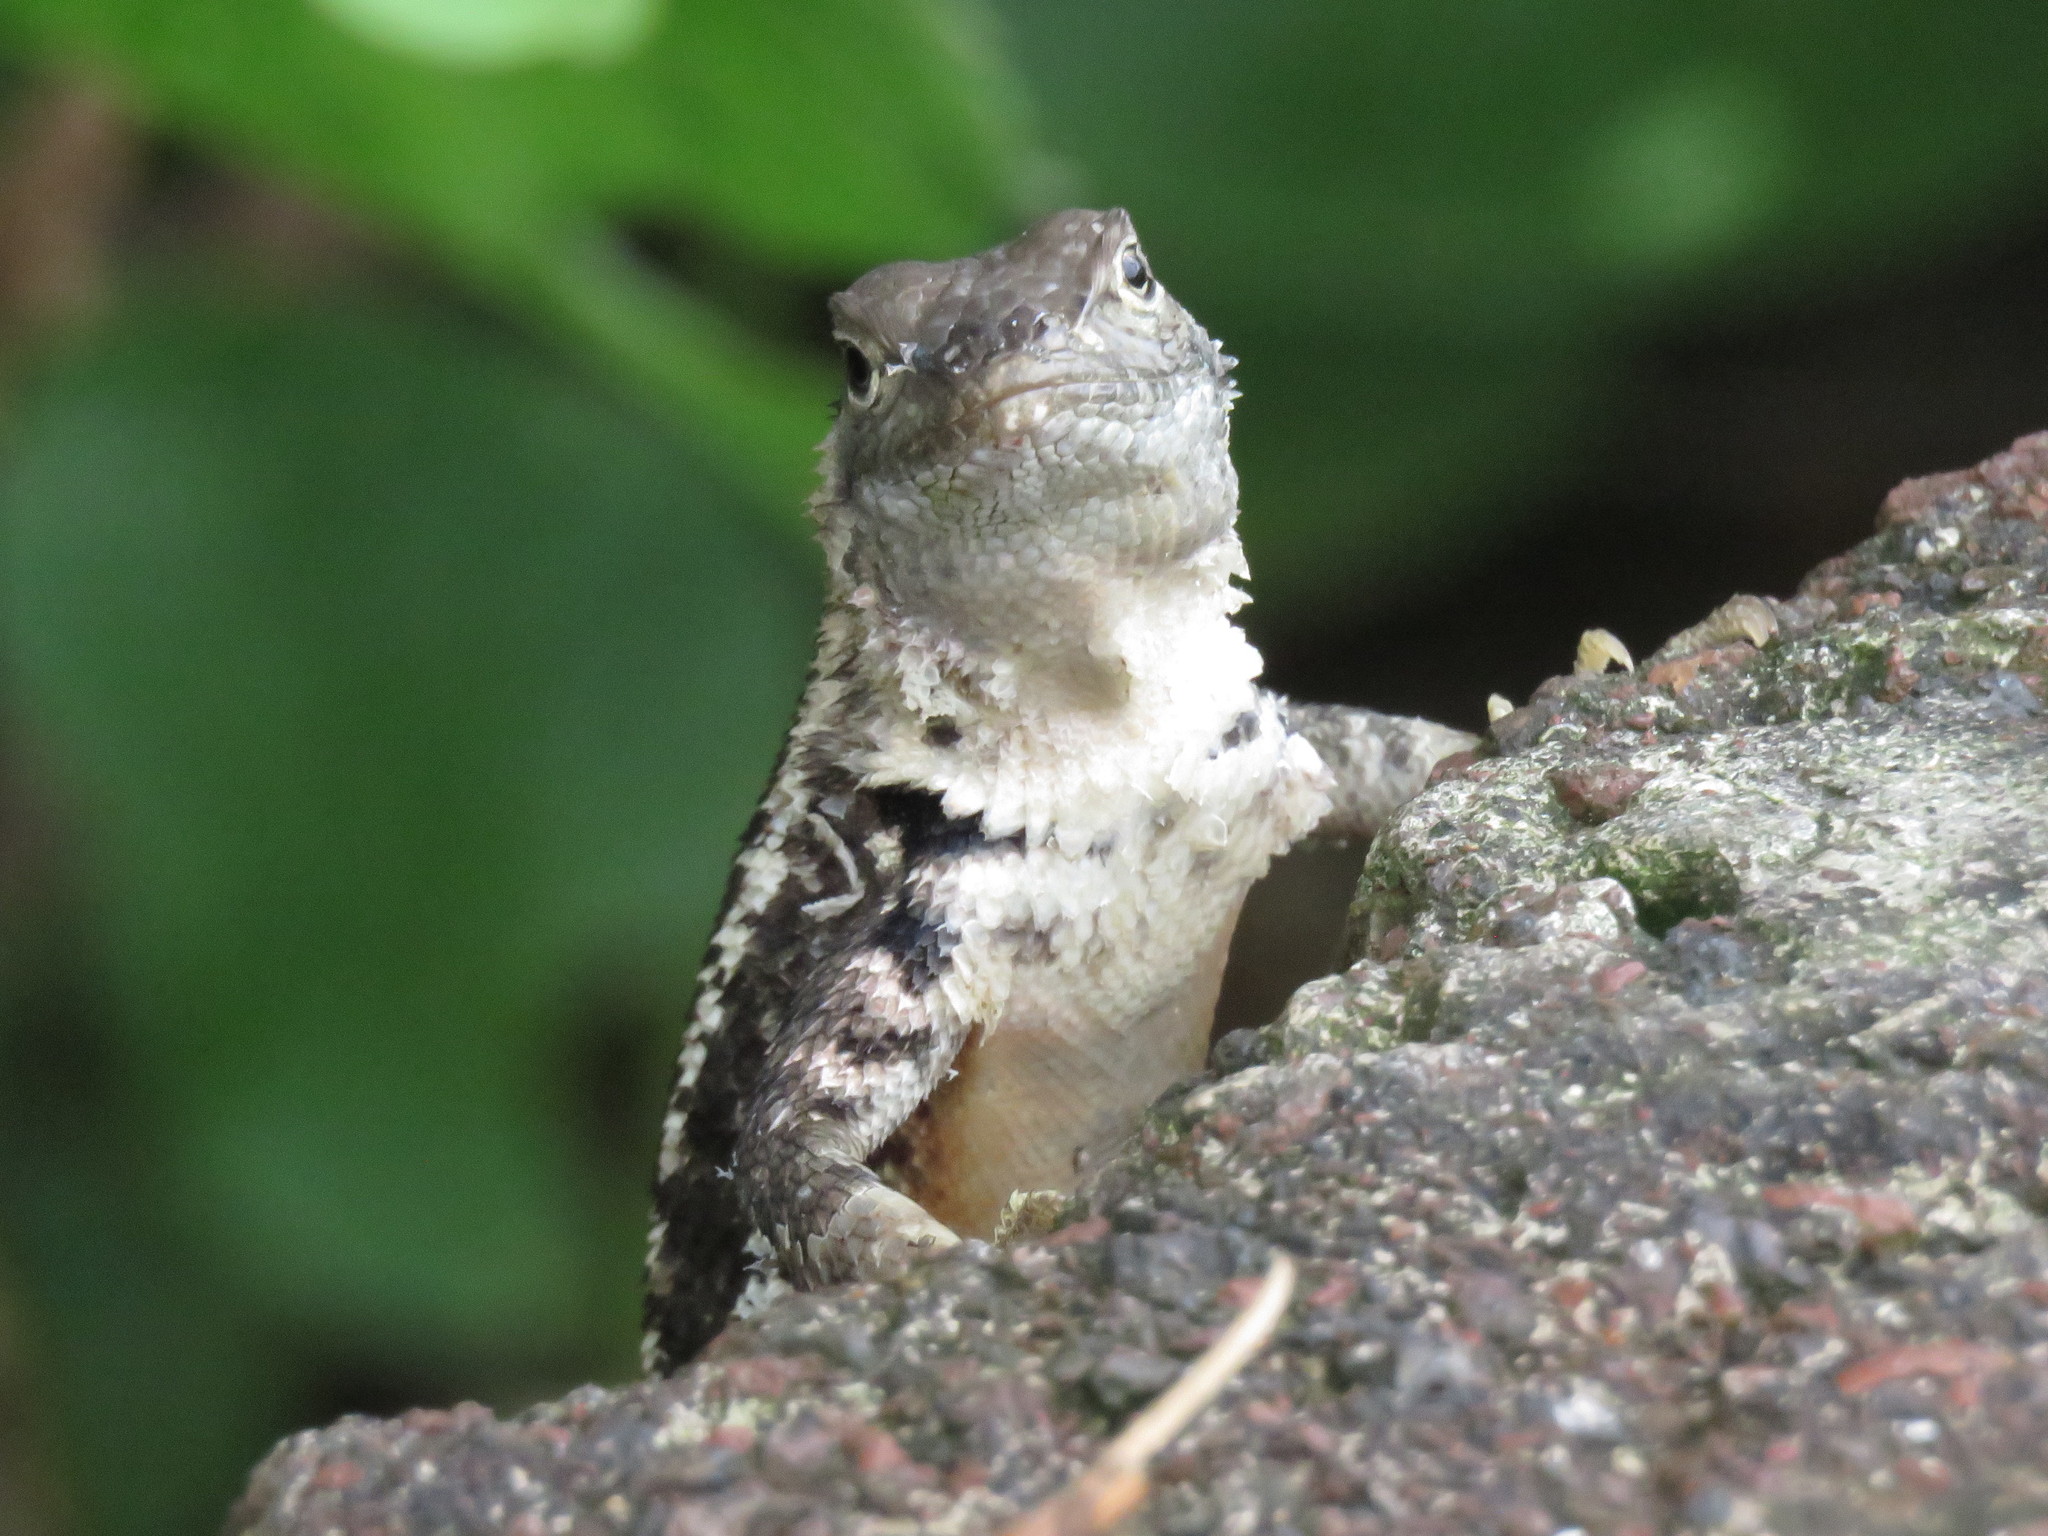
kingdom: Animalia
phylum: Chordata
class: Squamata
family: Tropiduridae
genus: Microlophus
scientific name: Microlophus bivittatus
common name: San cristobal lava lizard
